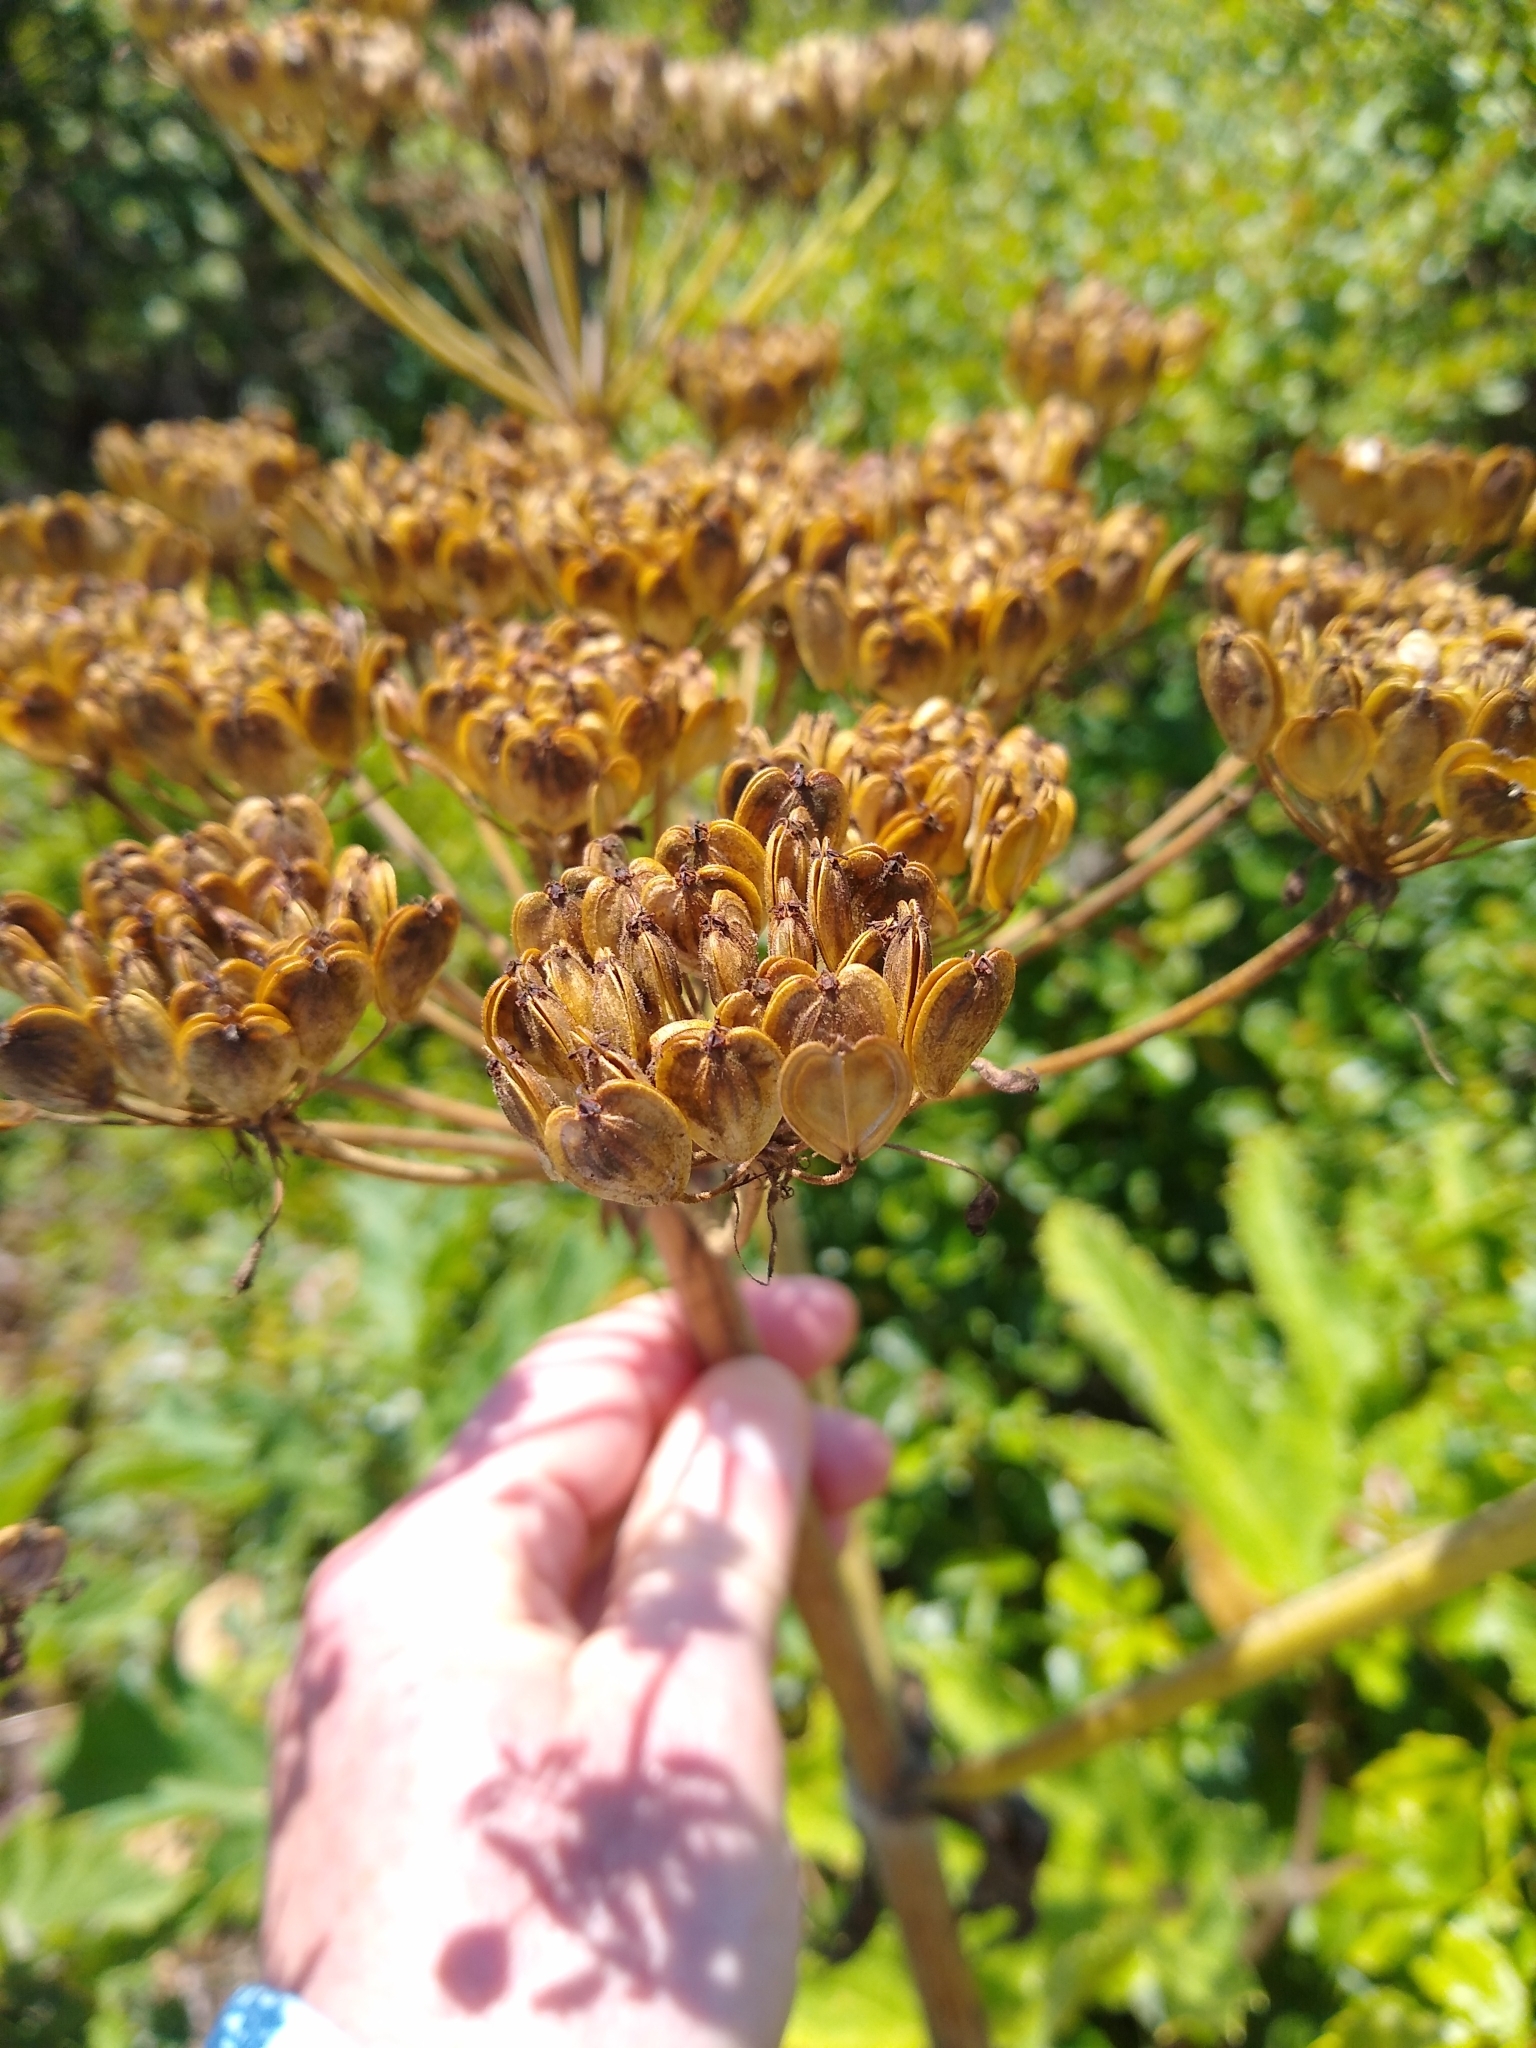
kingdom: Plantae
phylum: Tracheophyta
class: Magnoliopsida
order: Apiales
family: Apiaceae
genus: Heracleum
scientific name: Heracleum maximum
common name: American cow parsnip
